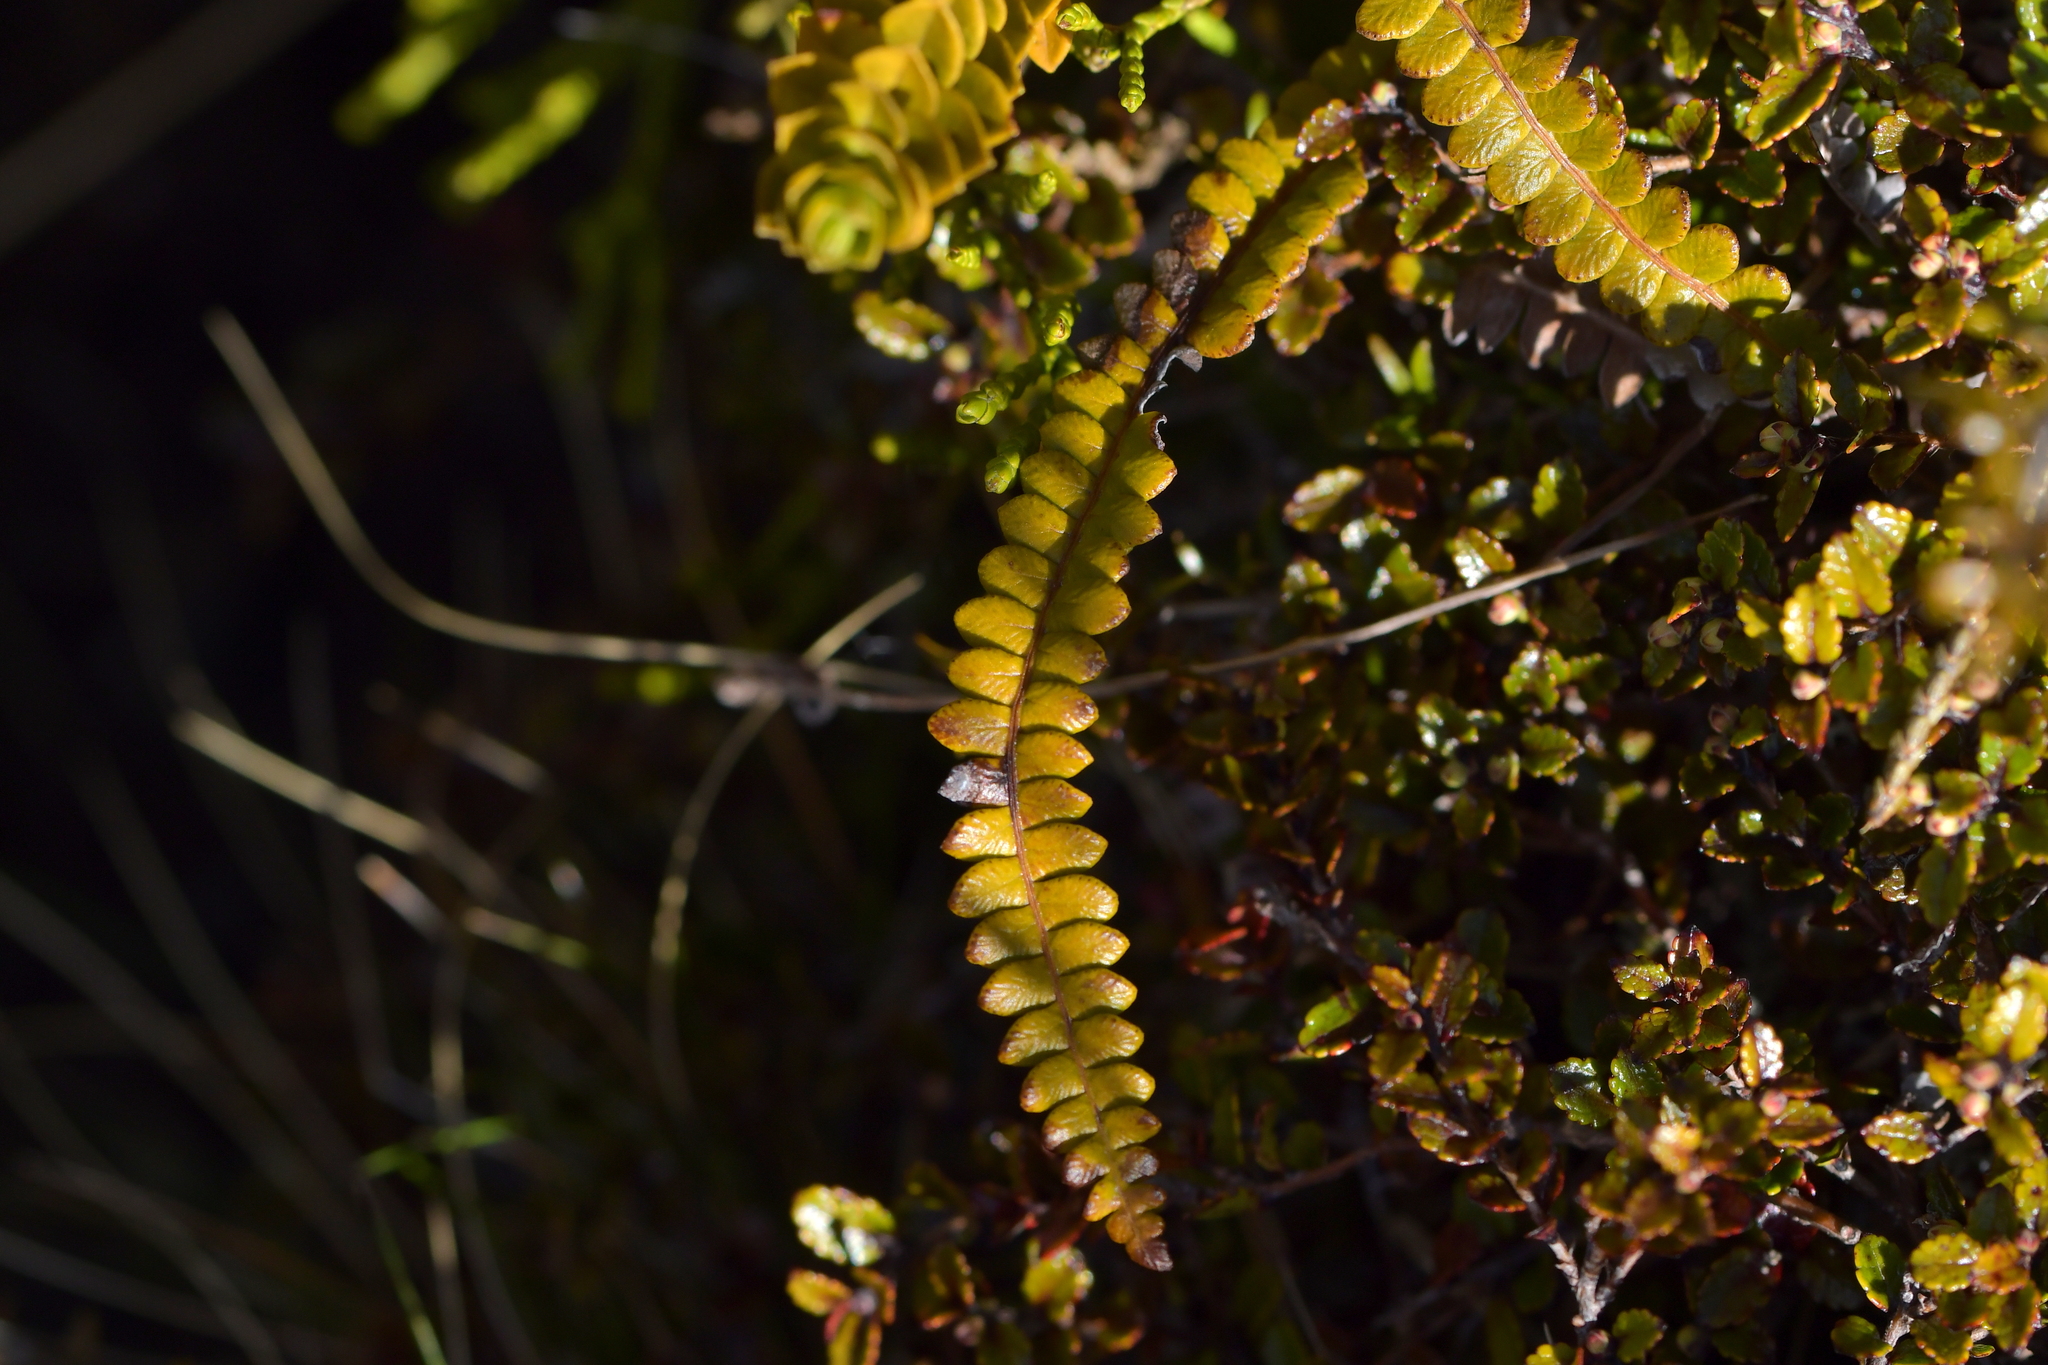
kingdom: Plantae
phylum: Tracheophyta
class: Polypodiopsida
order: Polypodiales
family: Blechnaceae
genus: Austroblechnum
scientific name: Austroblechnum penna-marina
